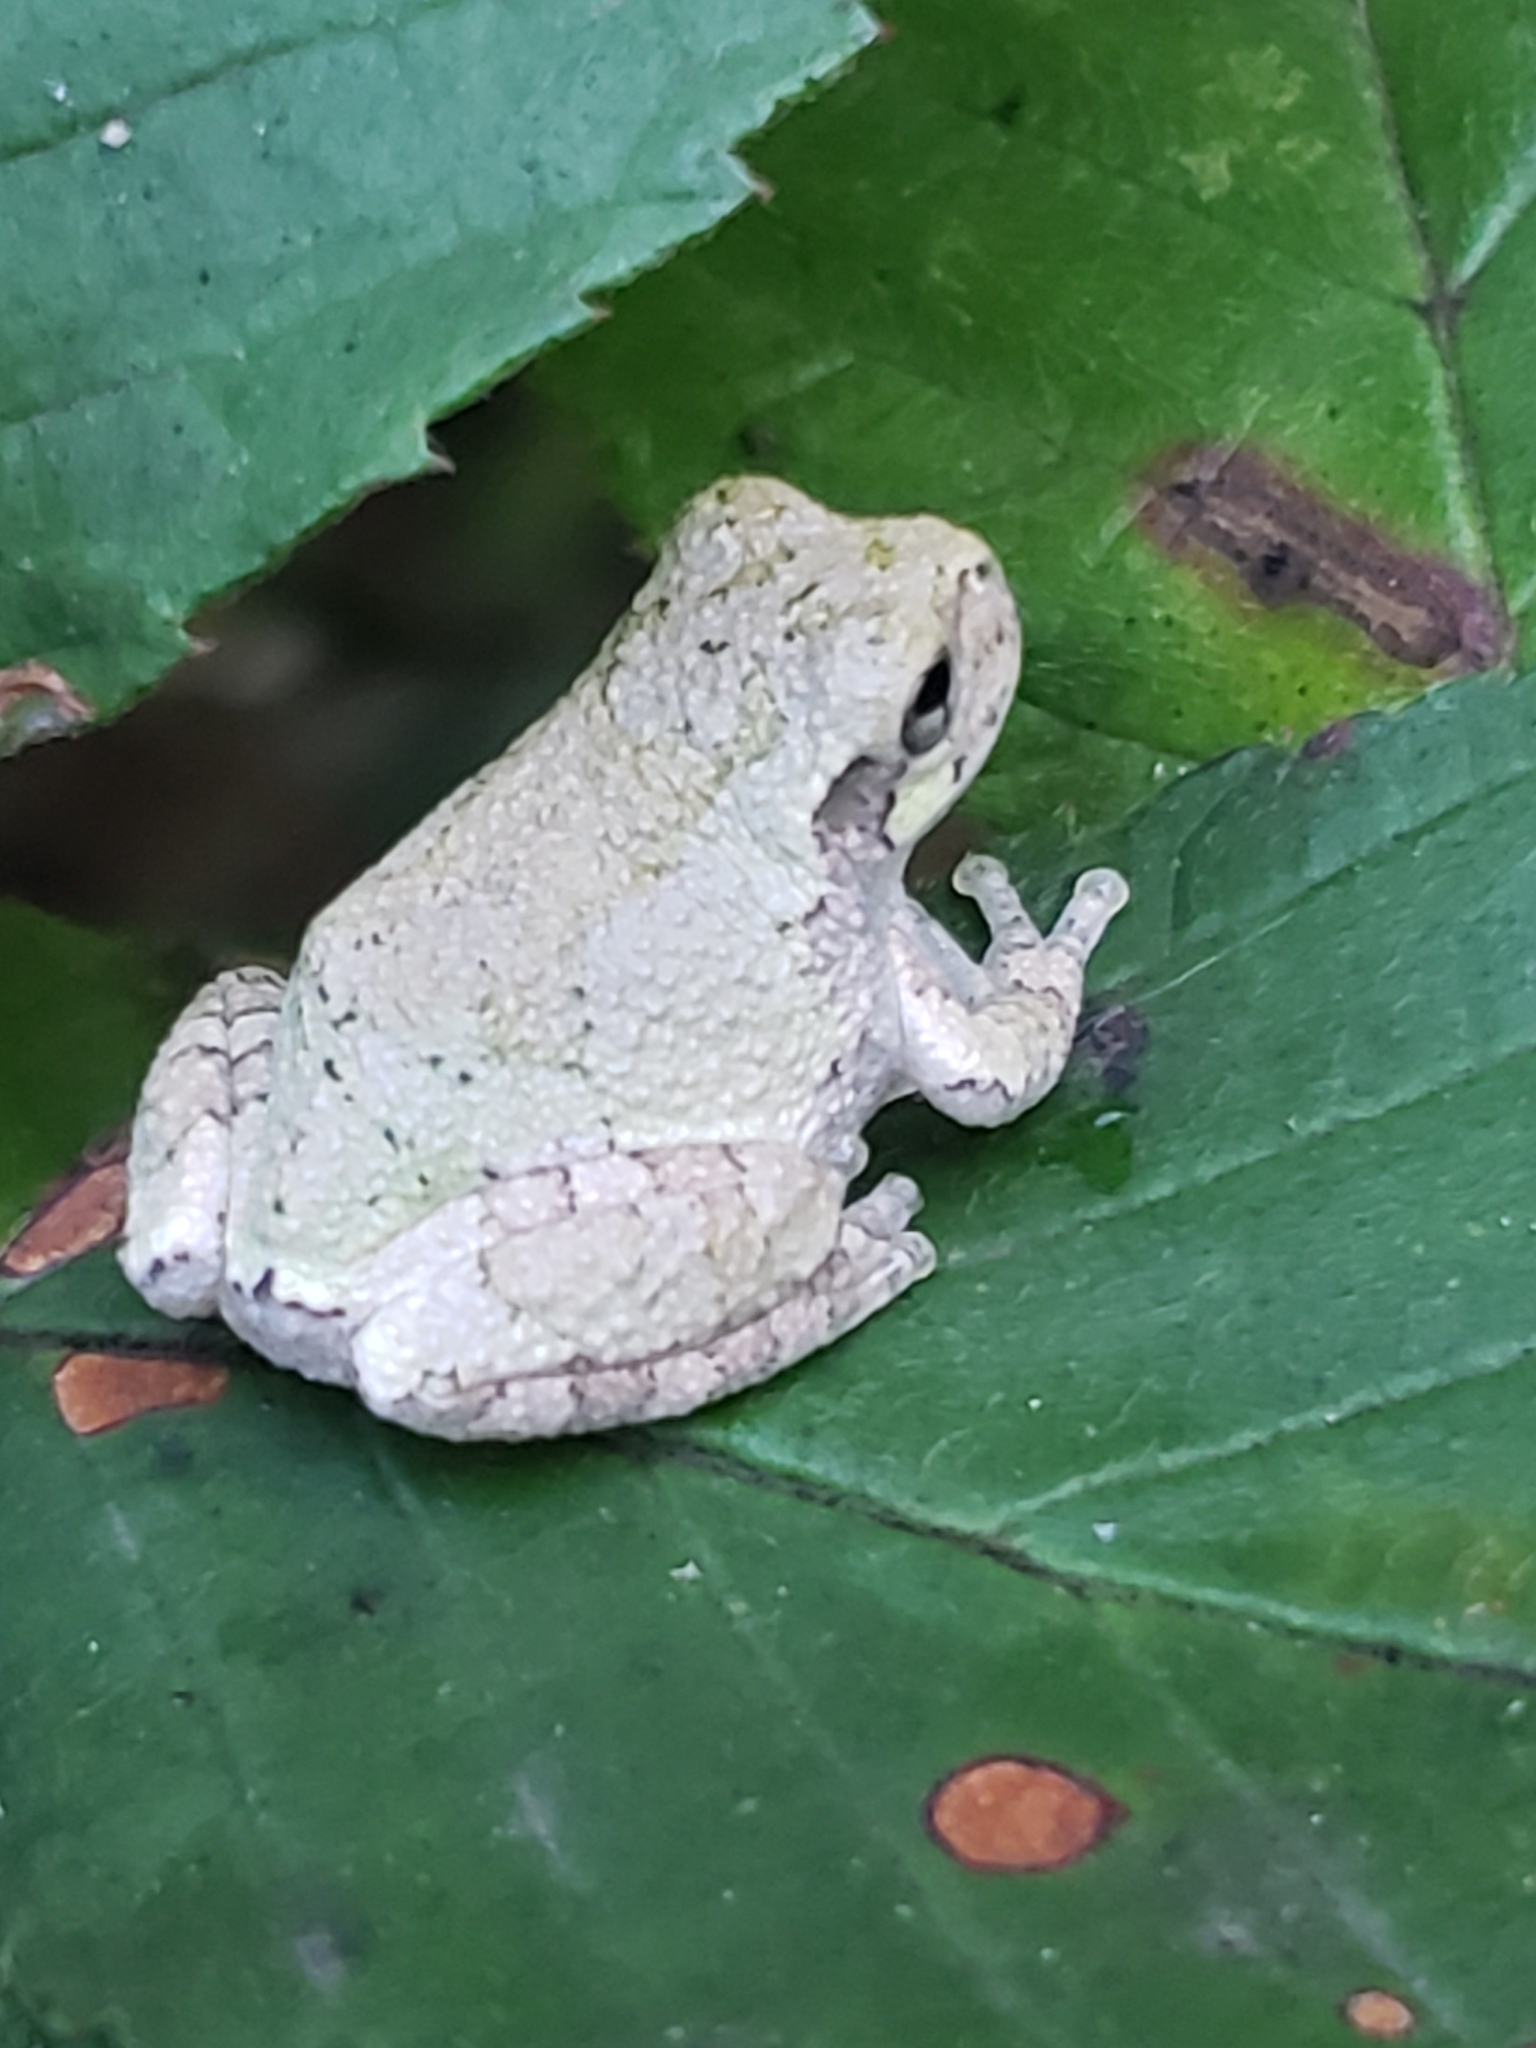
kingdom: Animalia
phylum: Chordata
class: Amphibia
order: Anura
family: Hylidae
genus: Hyla
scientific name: Hyla
